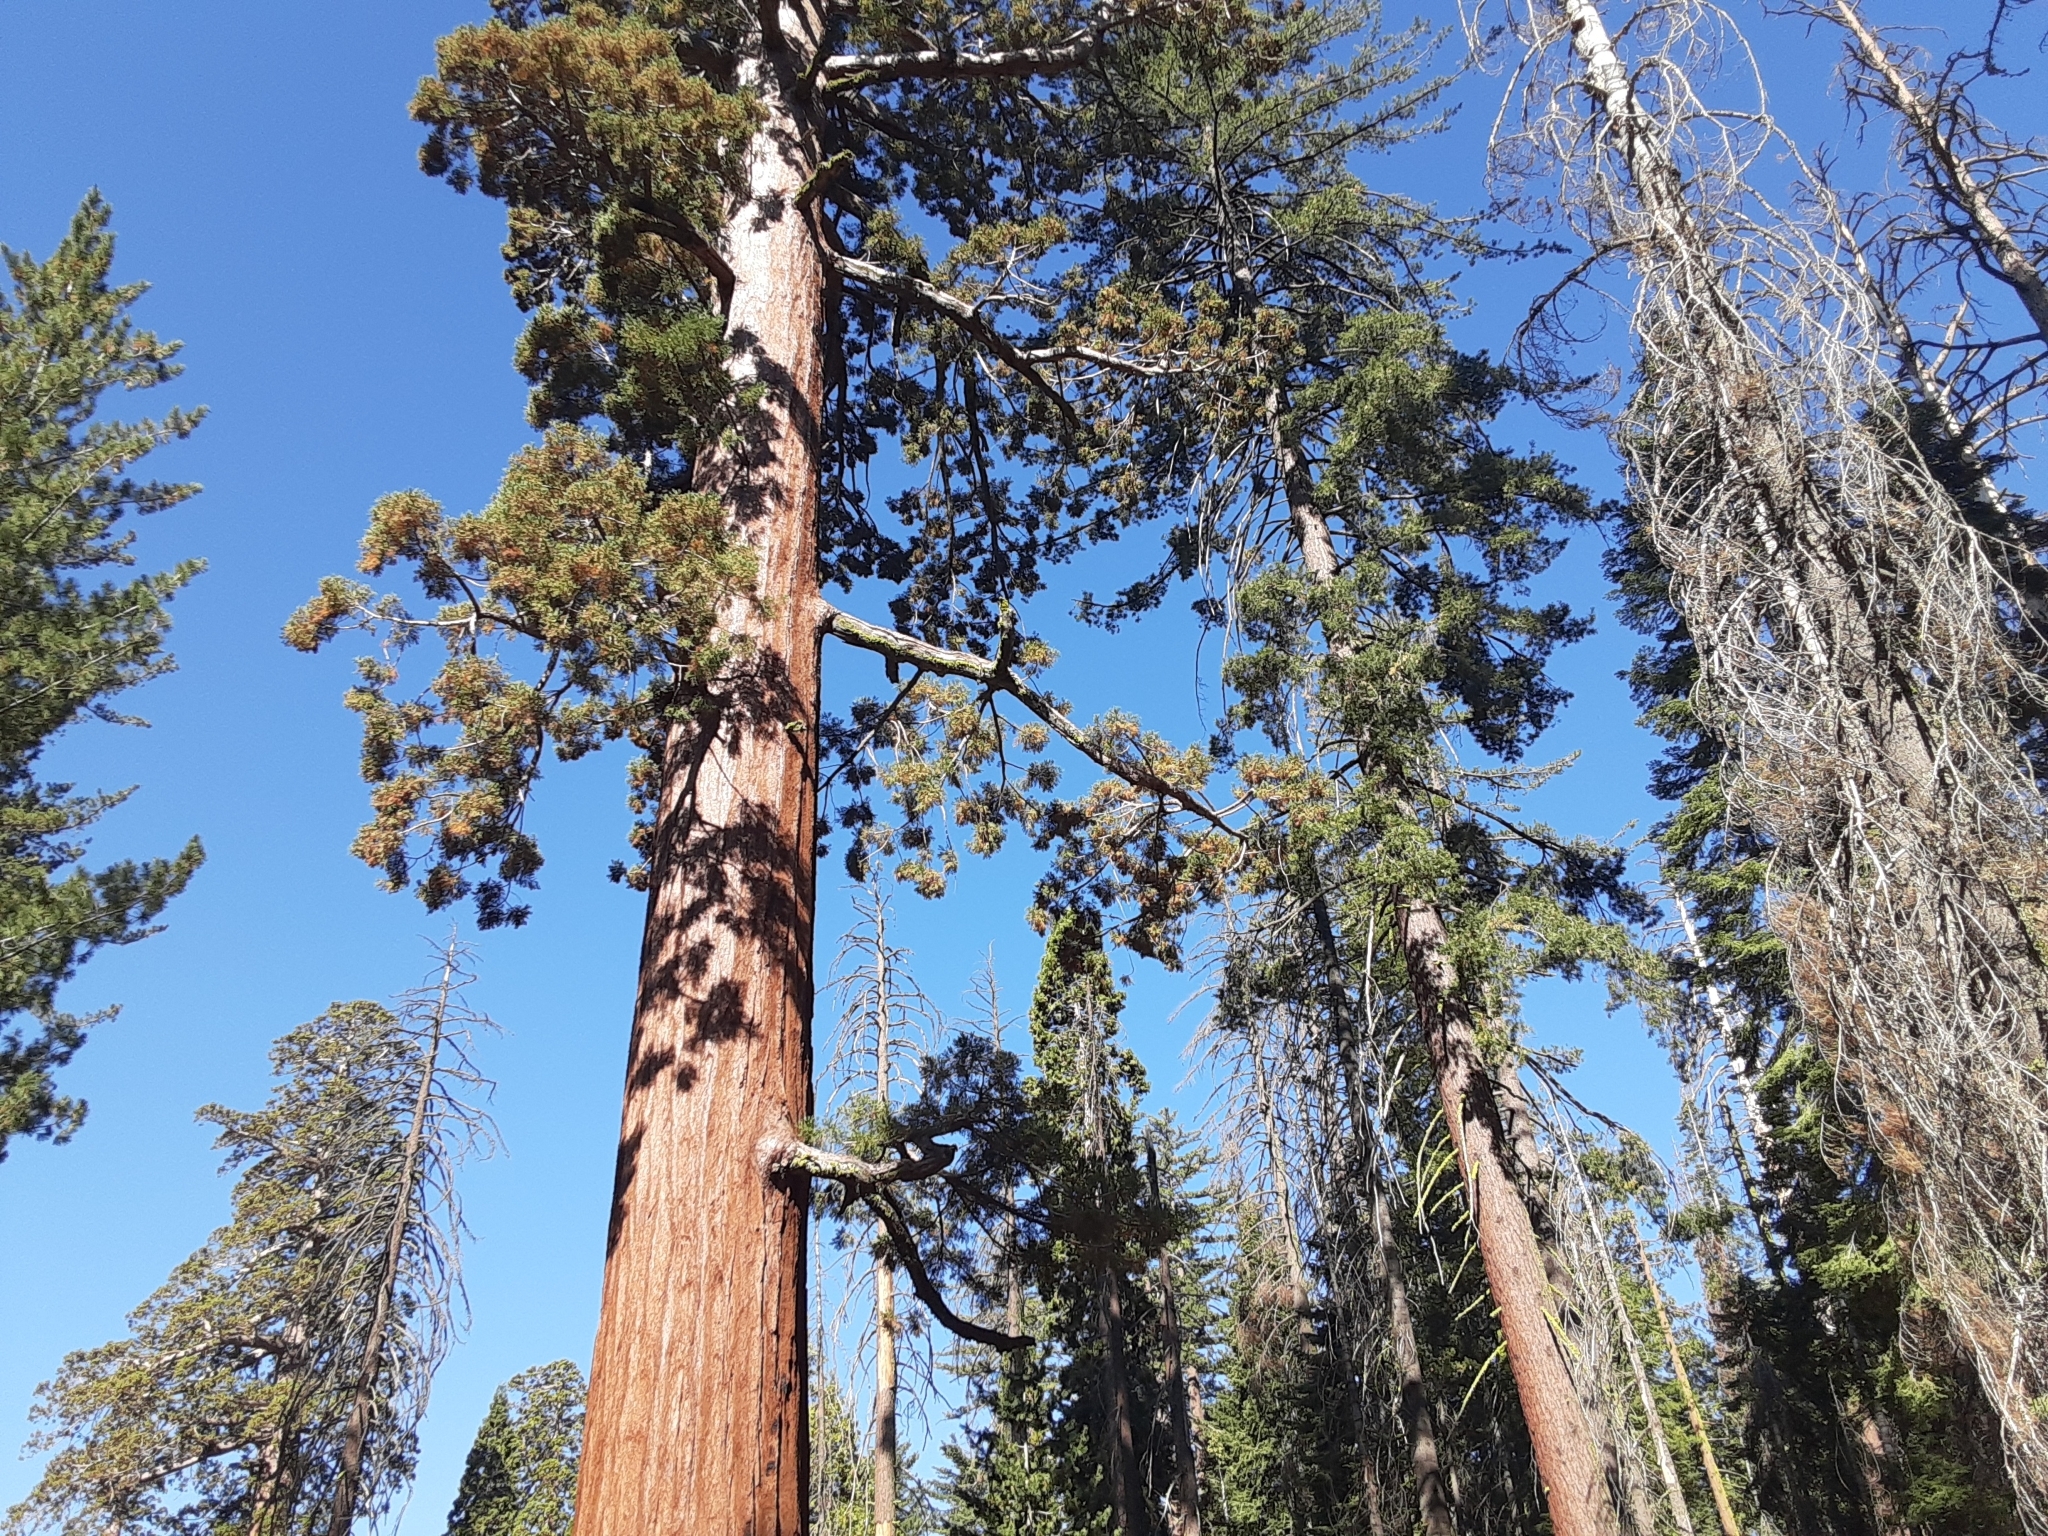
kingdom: Plantae
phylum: Tracheophyta
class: Pinopsida
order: Pinales
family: Cupressaceae
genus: Sequoiadendron
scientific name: Sequoiadendron giganteum
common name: Wellingtonia
